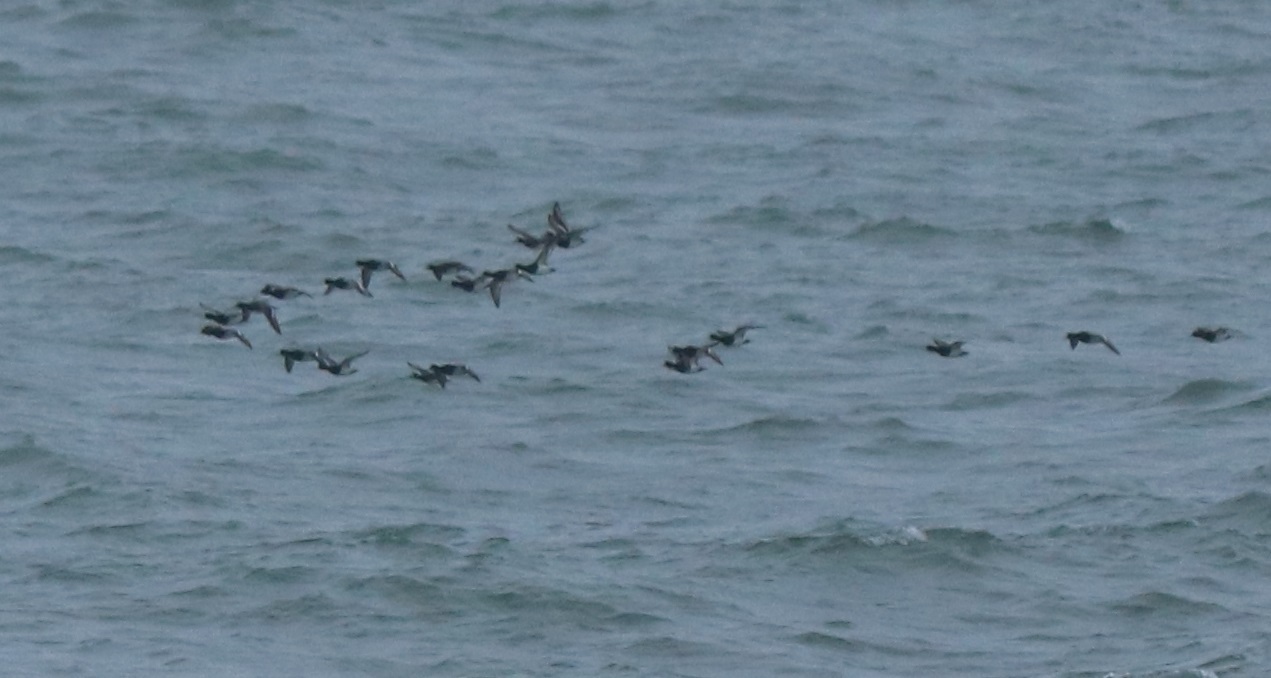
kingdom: Animalia
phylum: Chordata
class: Aves
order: Anseriformes
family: Anatidae
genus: Aythya
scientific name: Aythya affinis
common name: Lesser scaup
